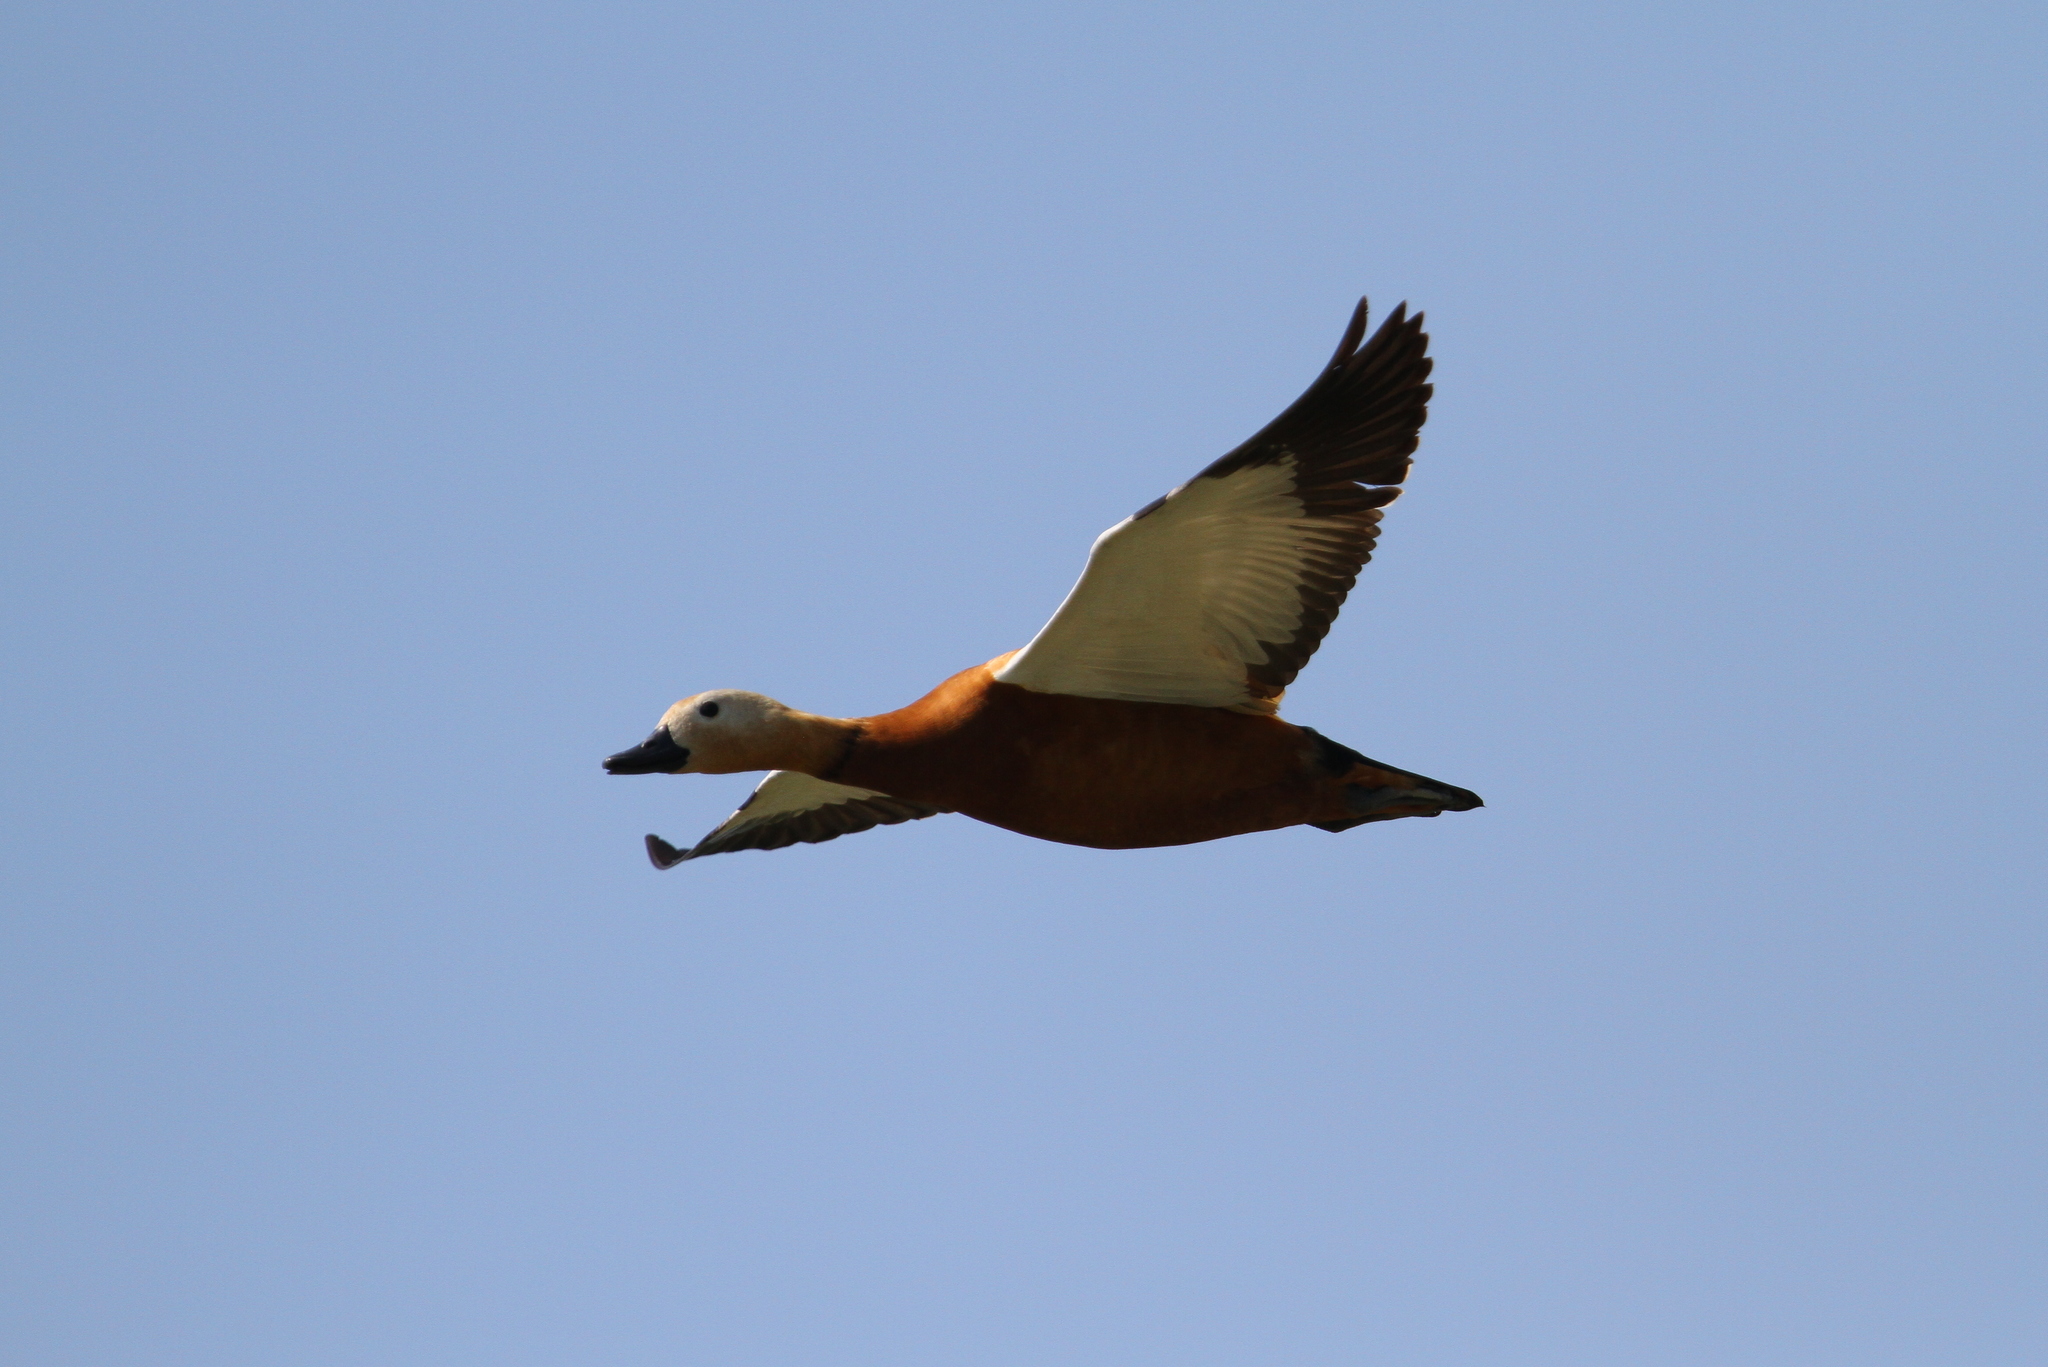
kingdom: Animalia
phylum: Chordata
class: Aves
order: Anseriformes
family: Anatidae
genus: Tadorna
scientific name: Tadorna ferruginea
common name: Ruddy shelduck
